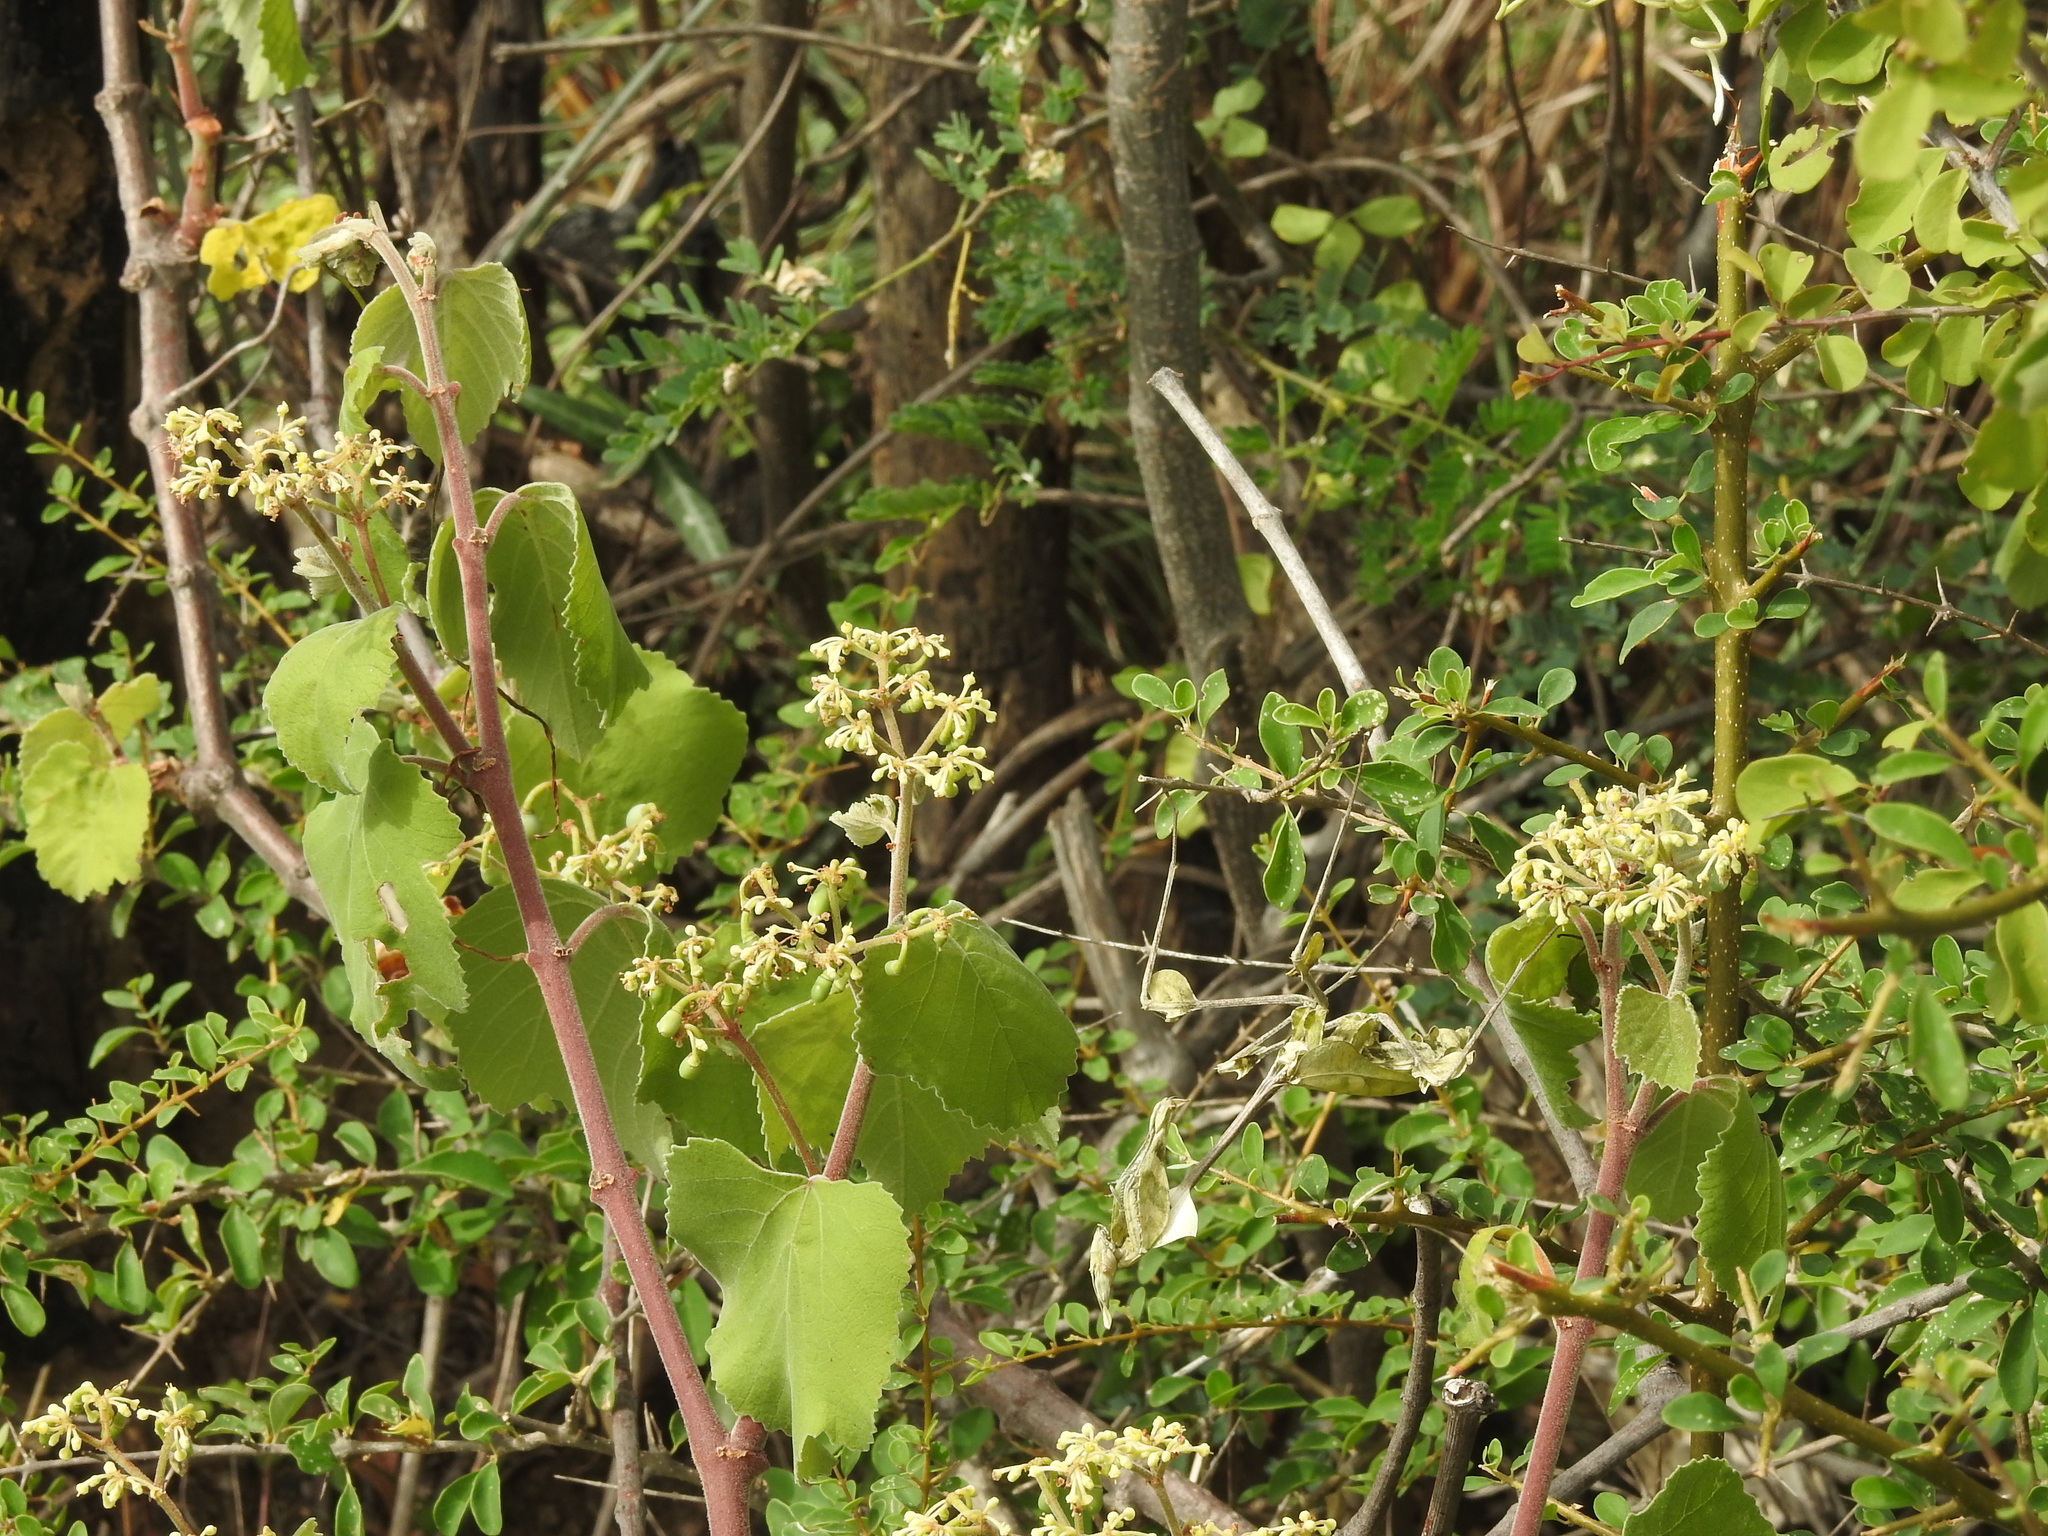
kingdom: Animalia
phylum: Arthropoda
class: Insecta
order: Mantodea
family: Empusidae
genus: Gongylus
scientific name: Gongylus gongylodes
